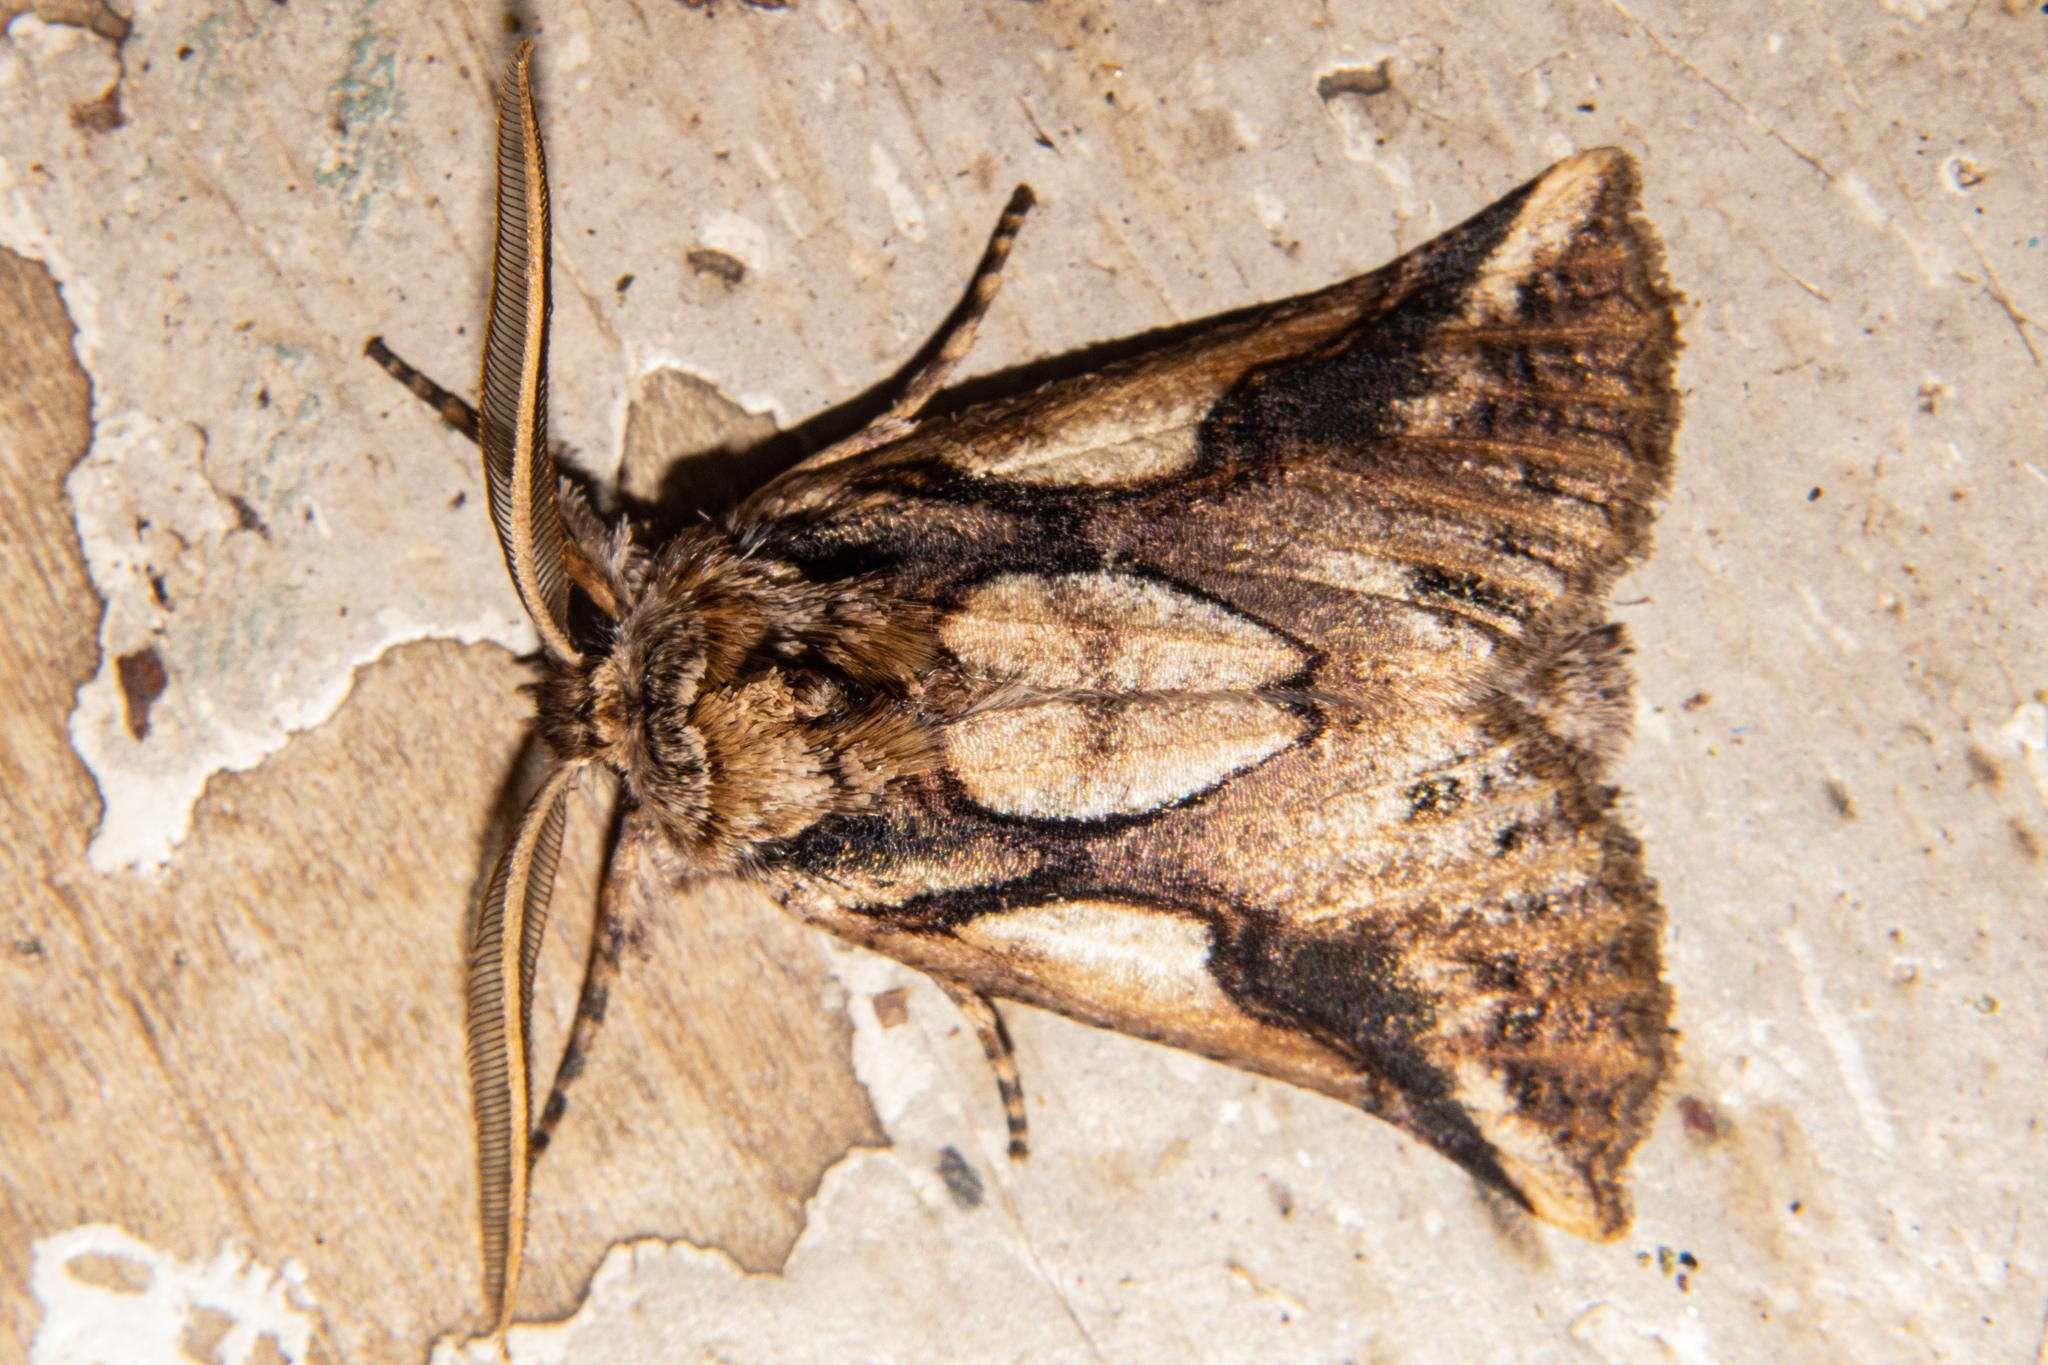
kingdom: Animalia
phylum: Arthropoda
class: Insecta
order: Lepidoptera
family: Geometridae
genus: Declana
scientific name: Declana
